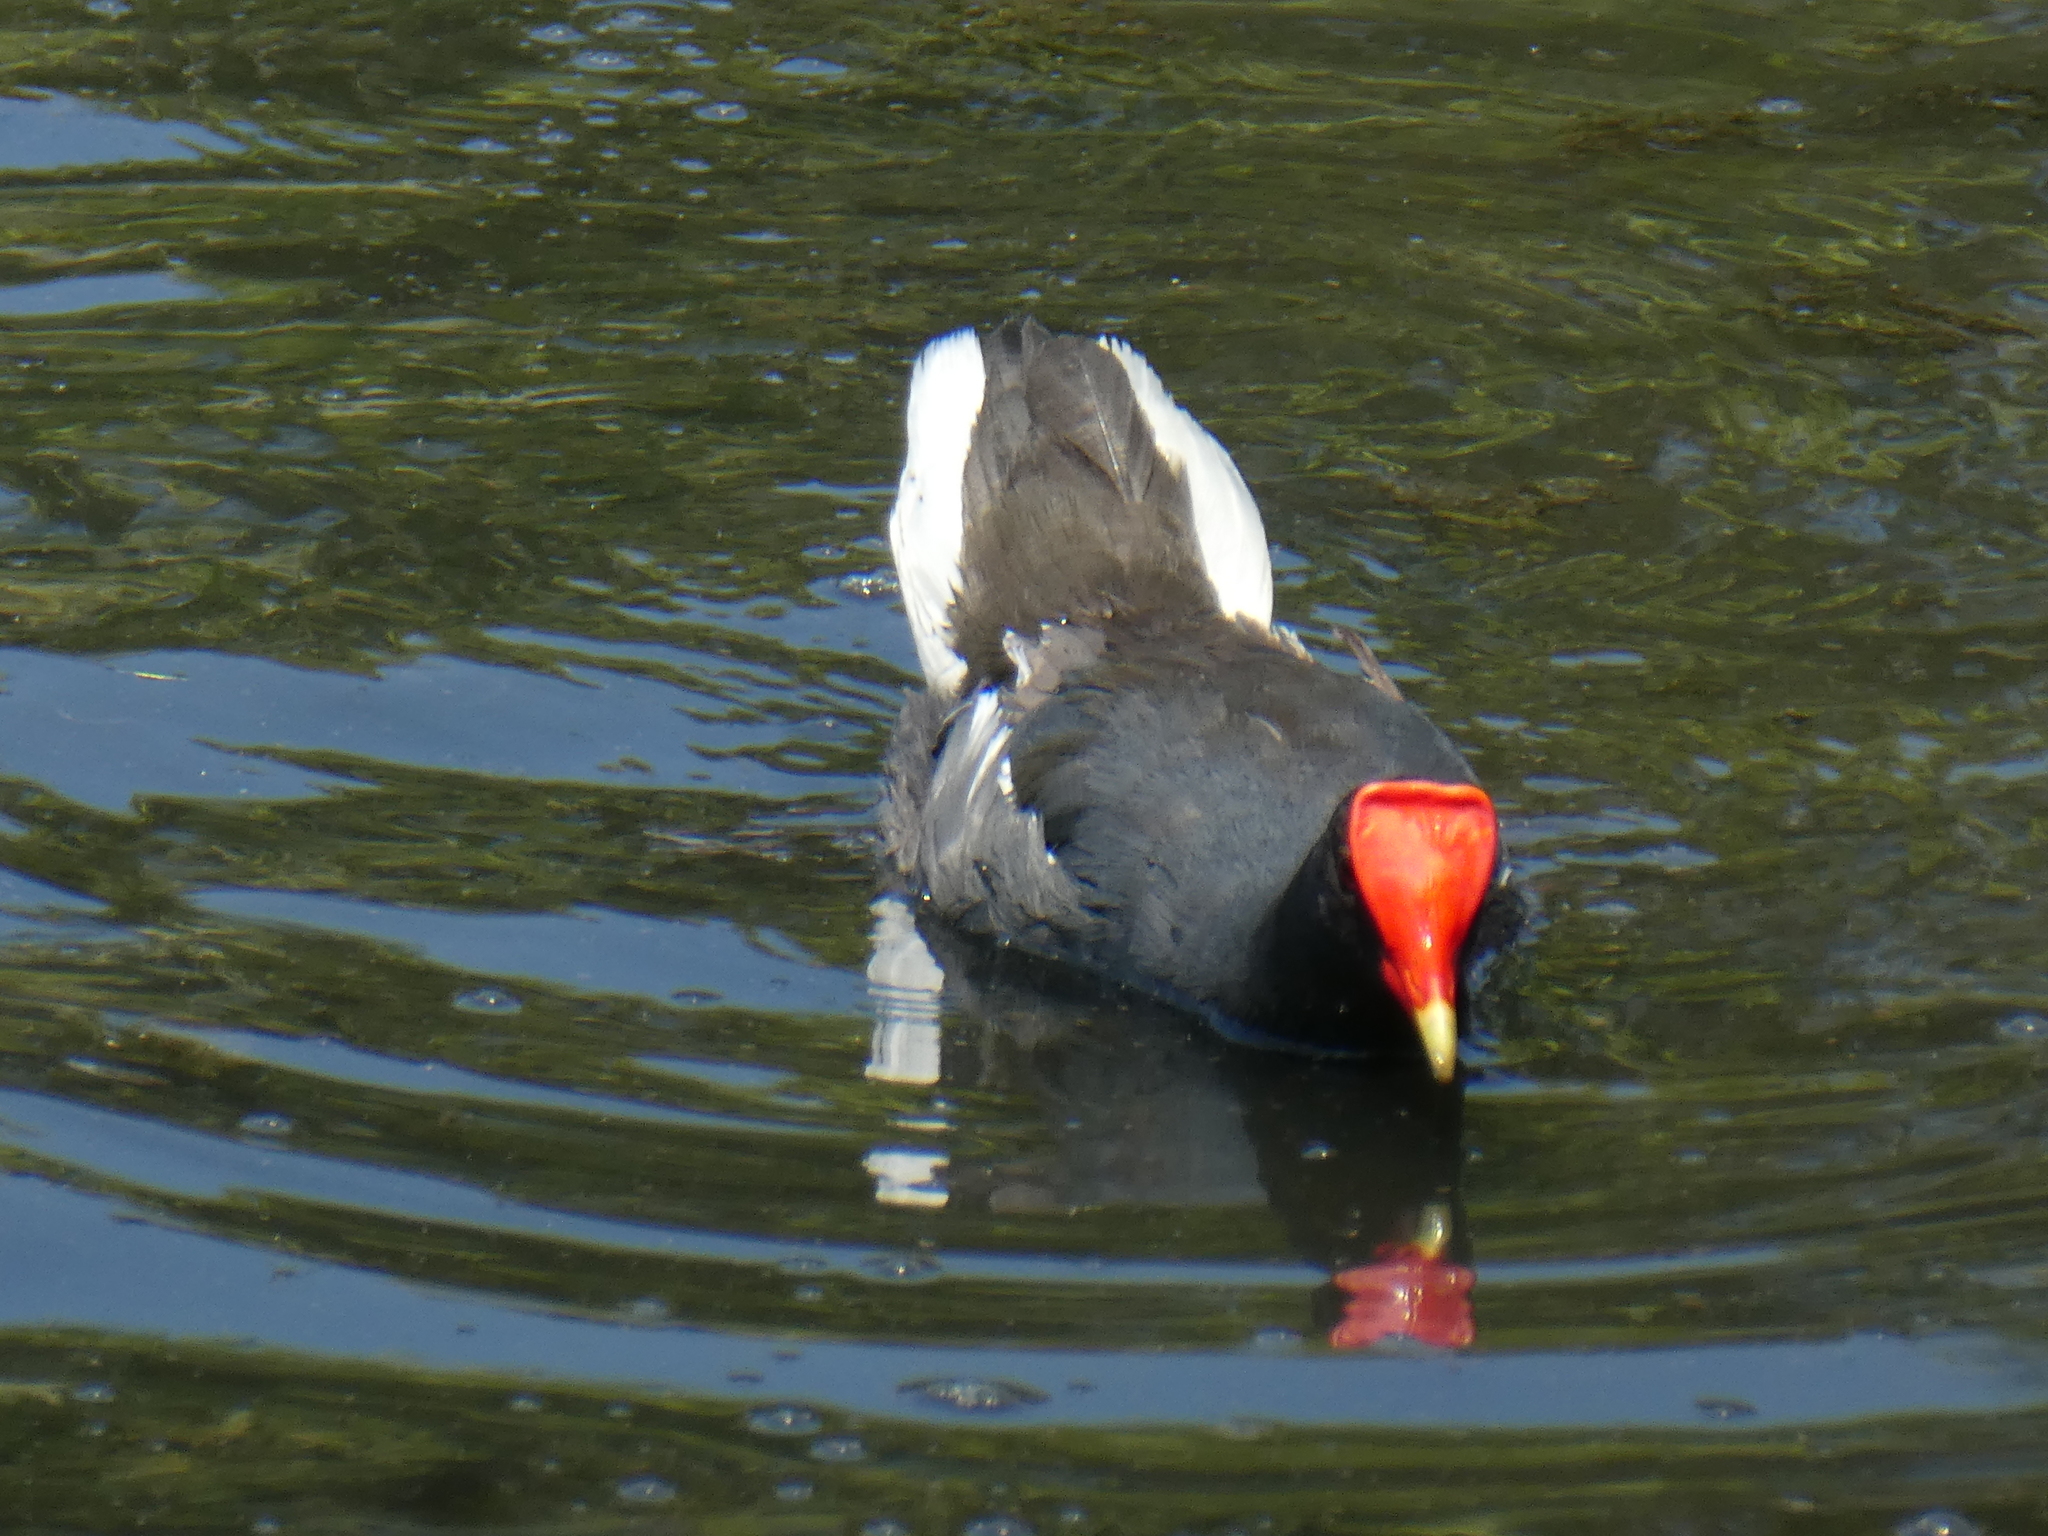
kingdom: Animalia
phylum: Chordata
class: Aves
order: Gruiformes
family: Rallidae
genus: Gallinula
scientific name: Gallinula chloropus
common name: Common moorhen
